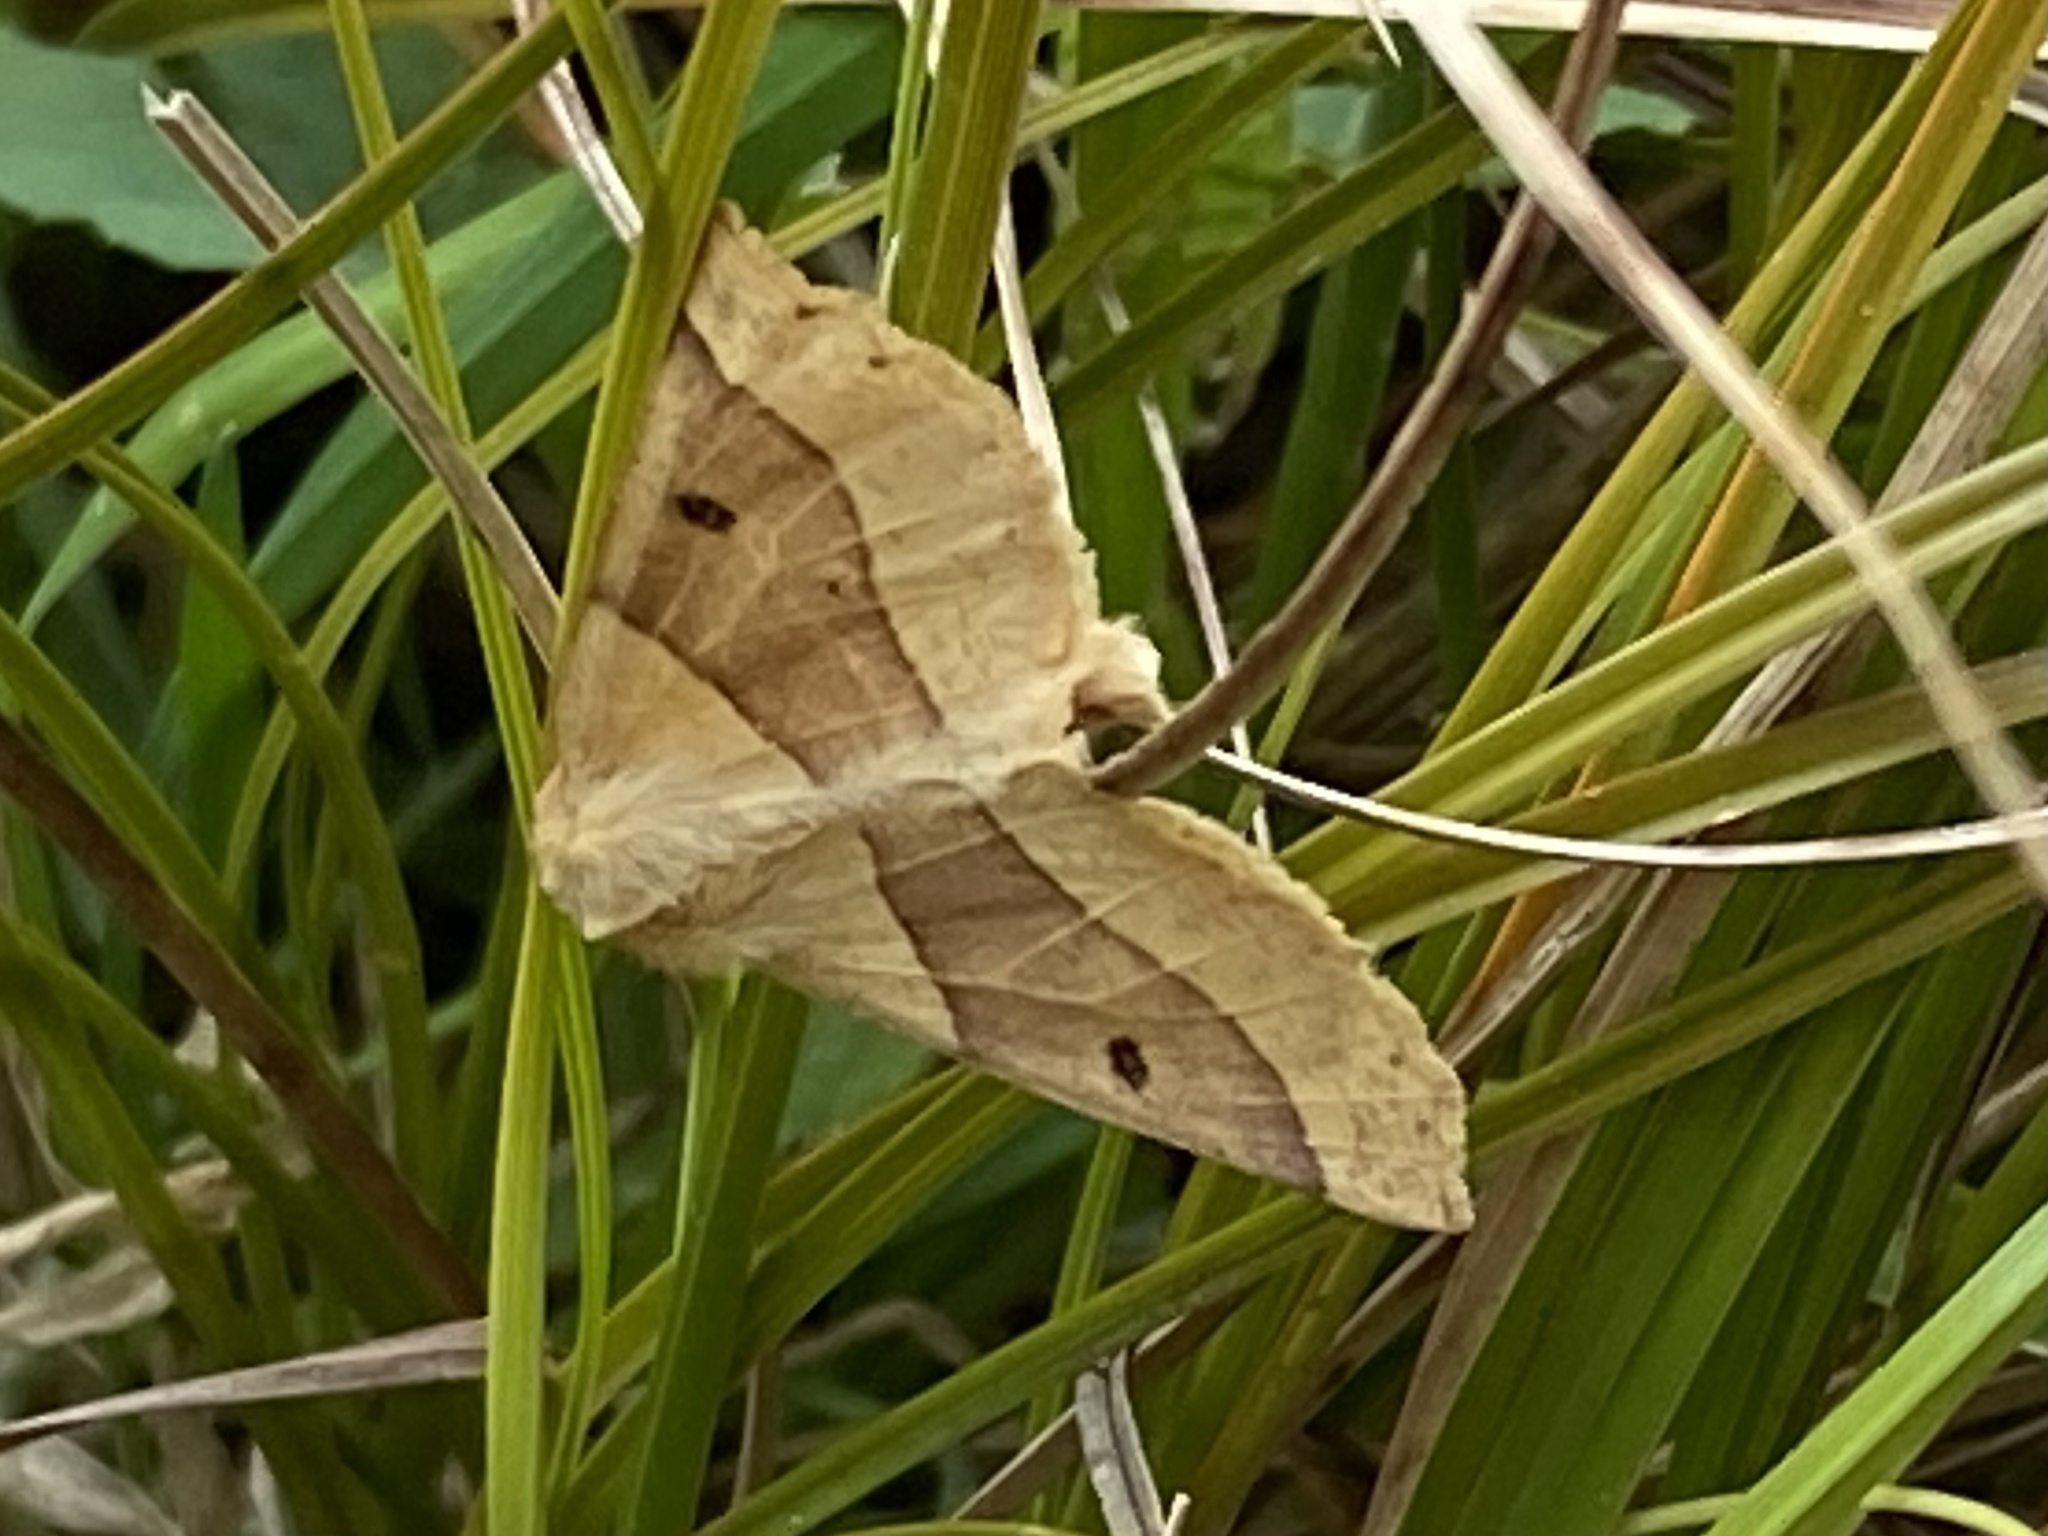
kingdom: Animalia
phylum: Arthropoda
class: Insecta
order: Lepidoptera
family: Geometridae
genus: Crocallis
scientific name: Crocallis elinguaria
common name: Scalloped oak
